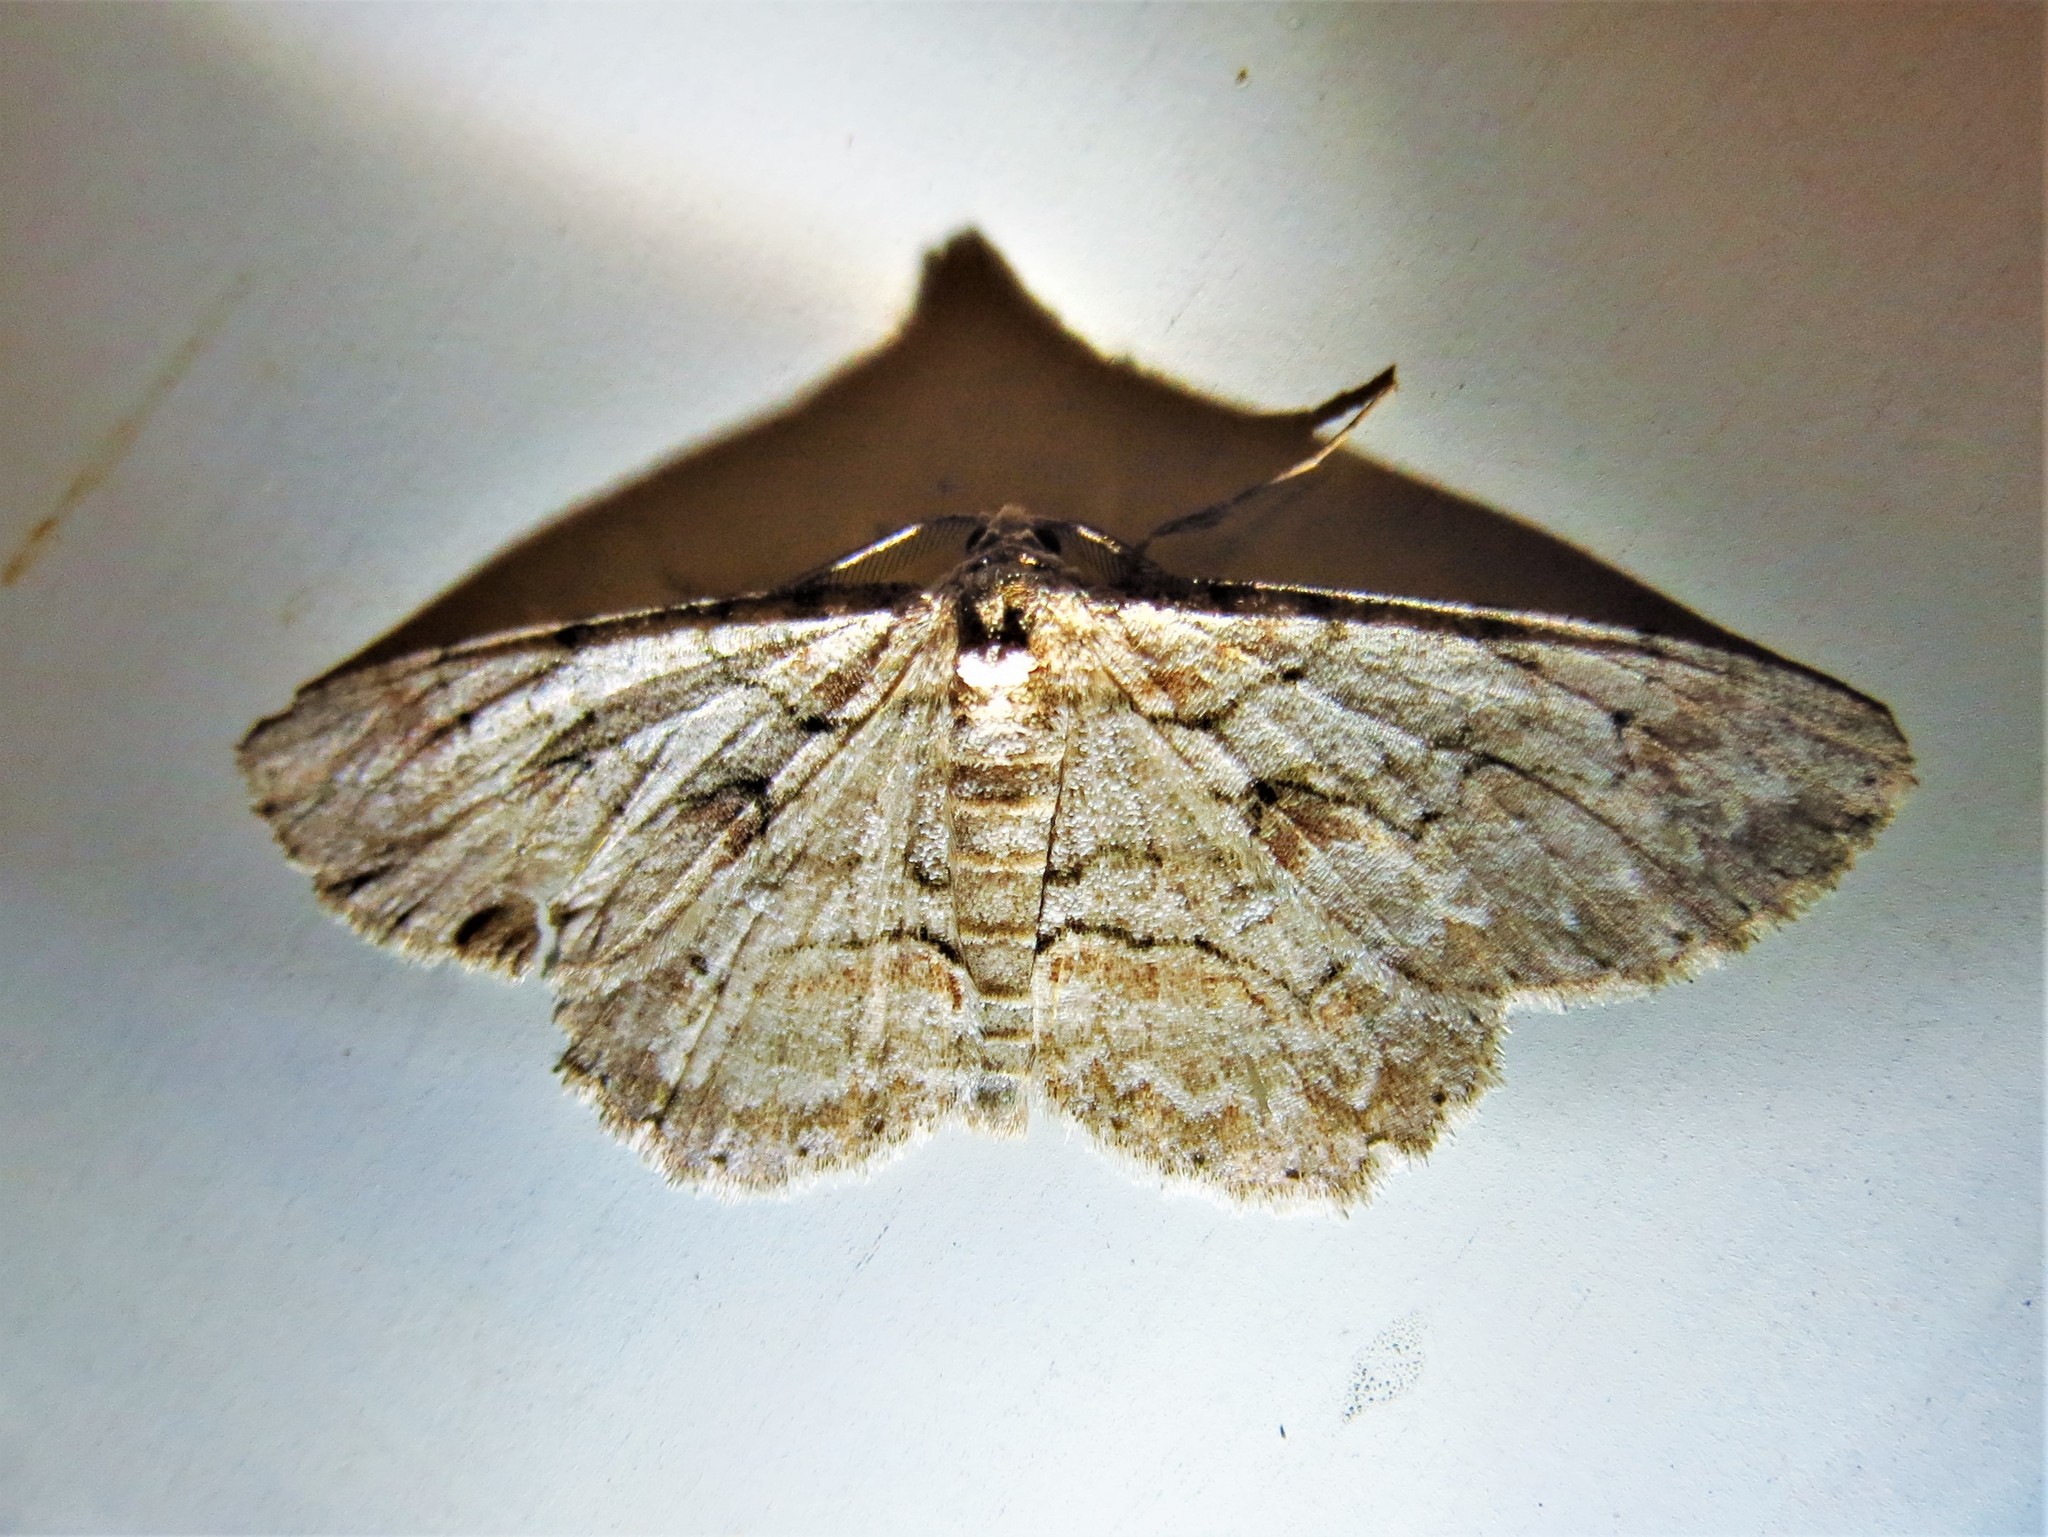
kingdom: Animalia
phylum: Arthropoda
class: Insecta
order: Lepidoptera
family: Geometridae
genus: Iridopsis
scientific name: Iridopsis defectaria
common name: Brown-shaded gray
